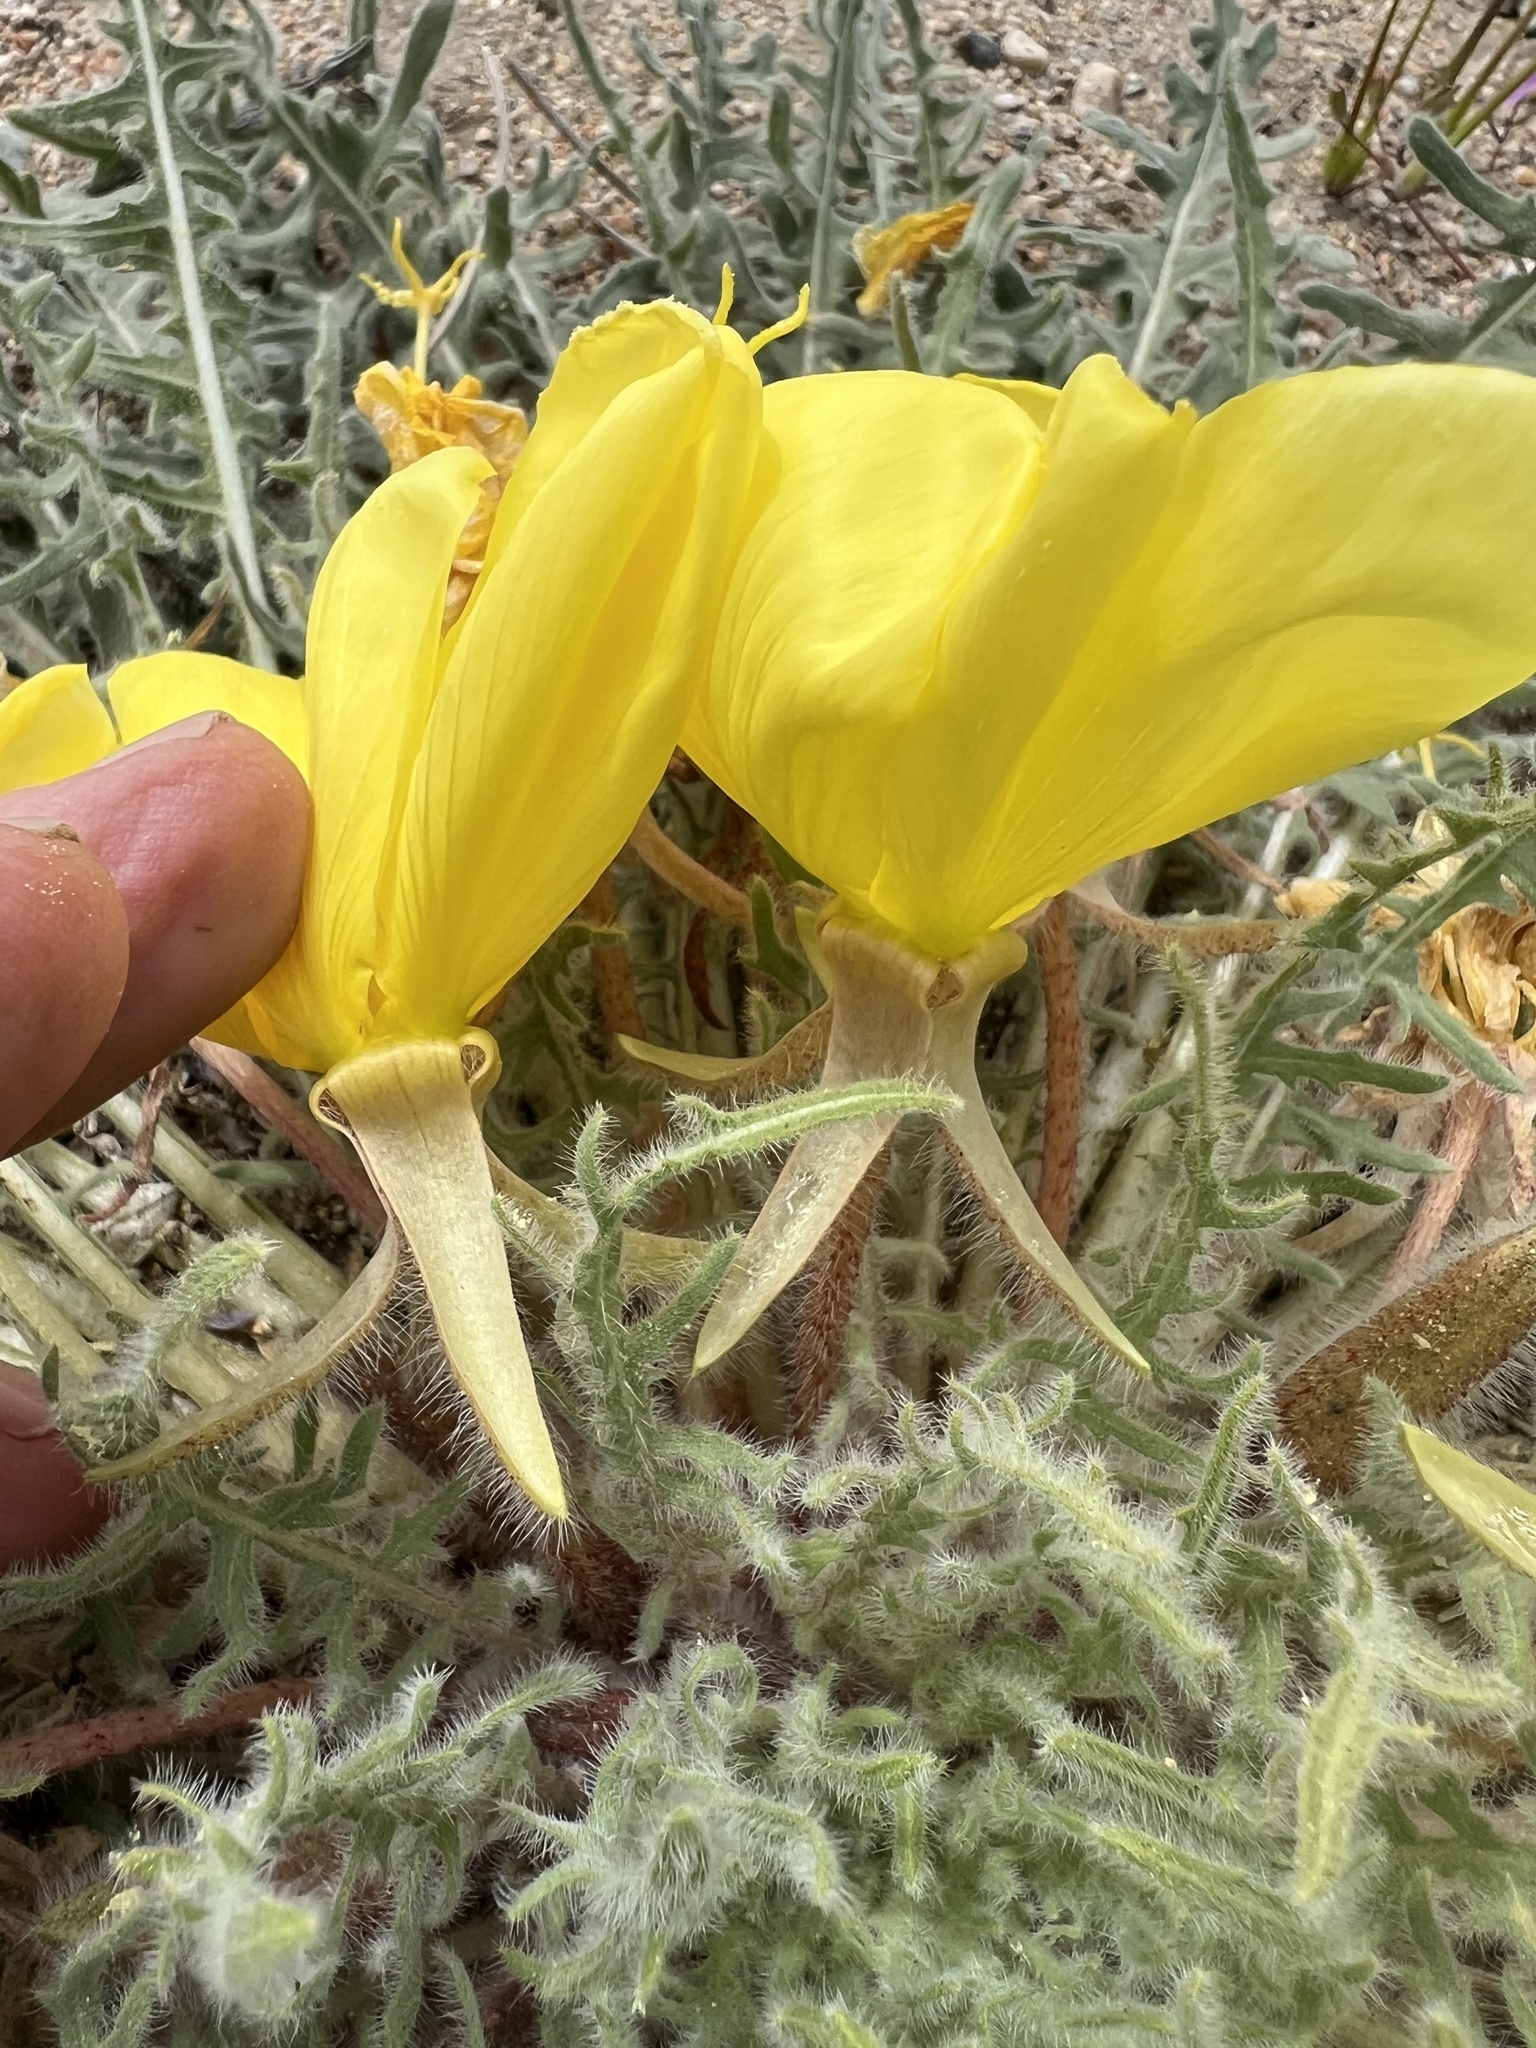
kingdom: Plantae
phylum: Tracheophyta
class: Magnoliopsida
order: Myrtales
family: Onagraceae
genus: Oenothera
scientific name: Oenothera primiveris
